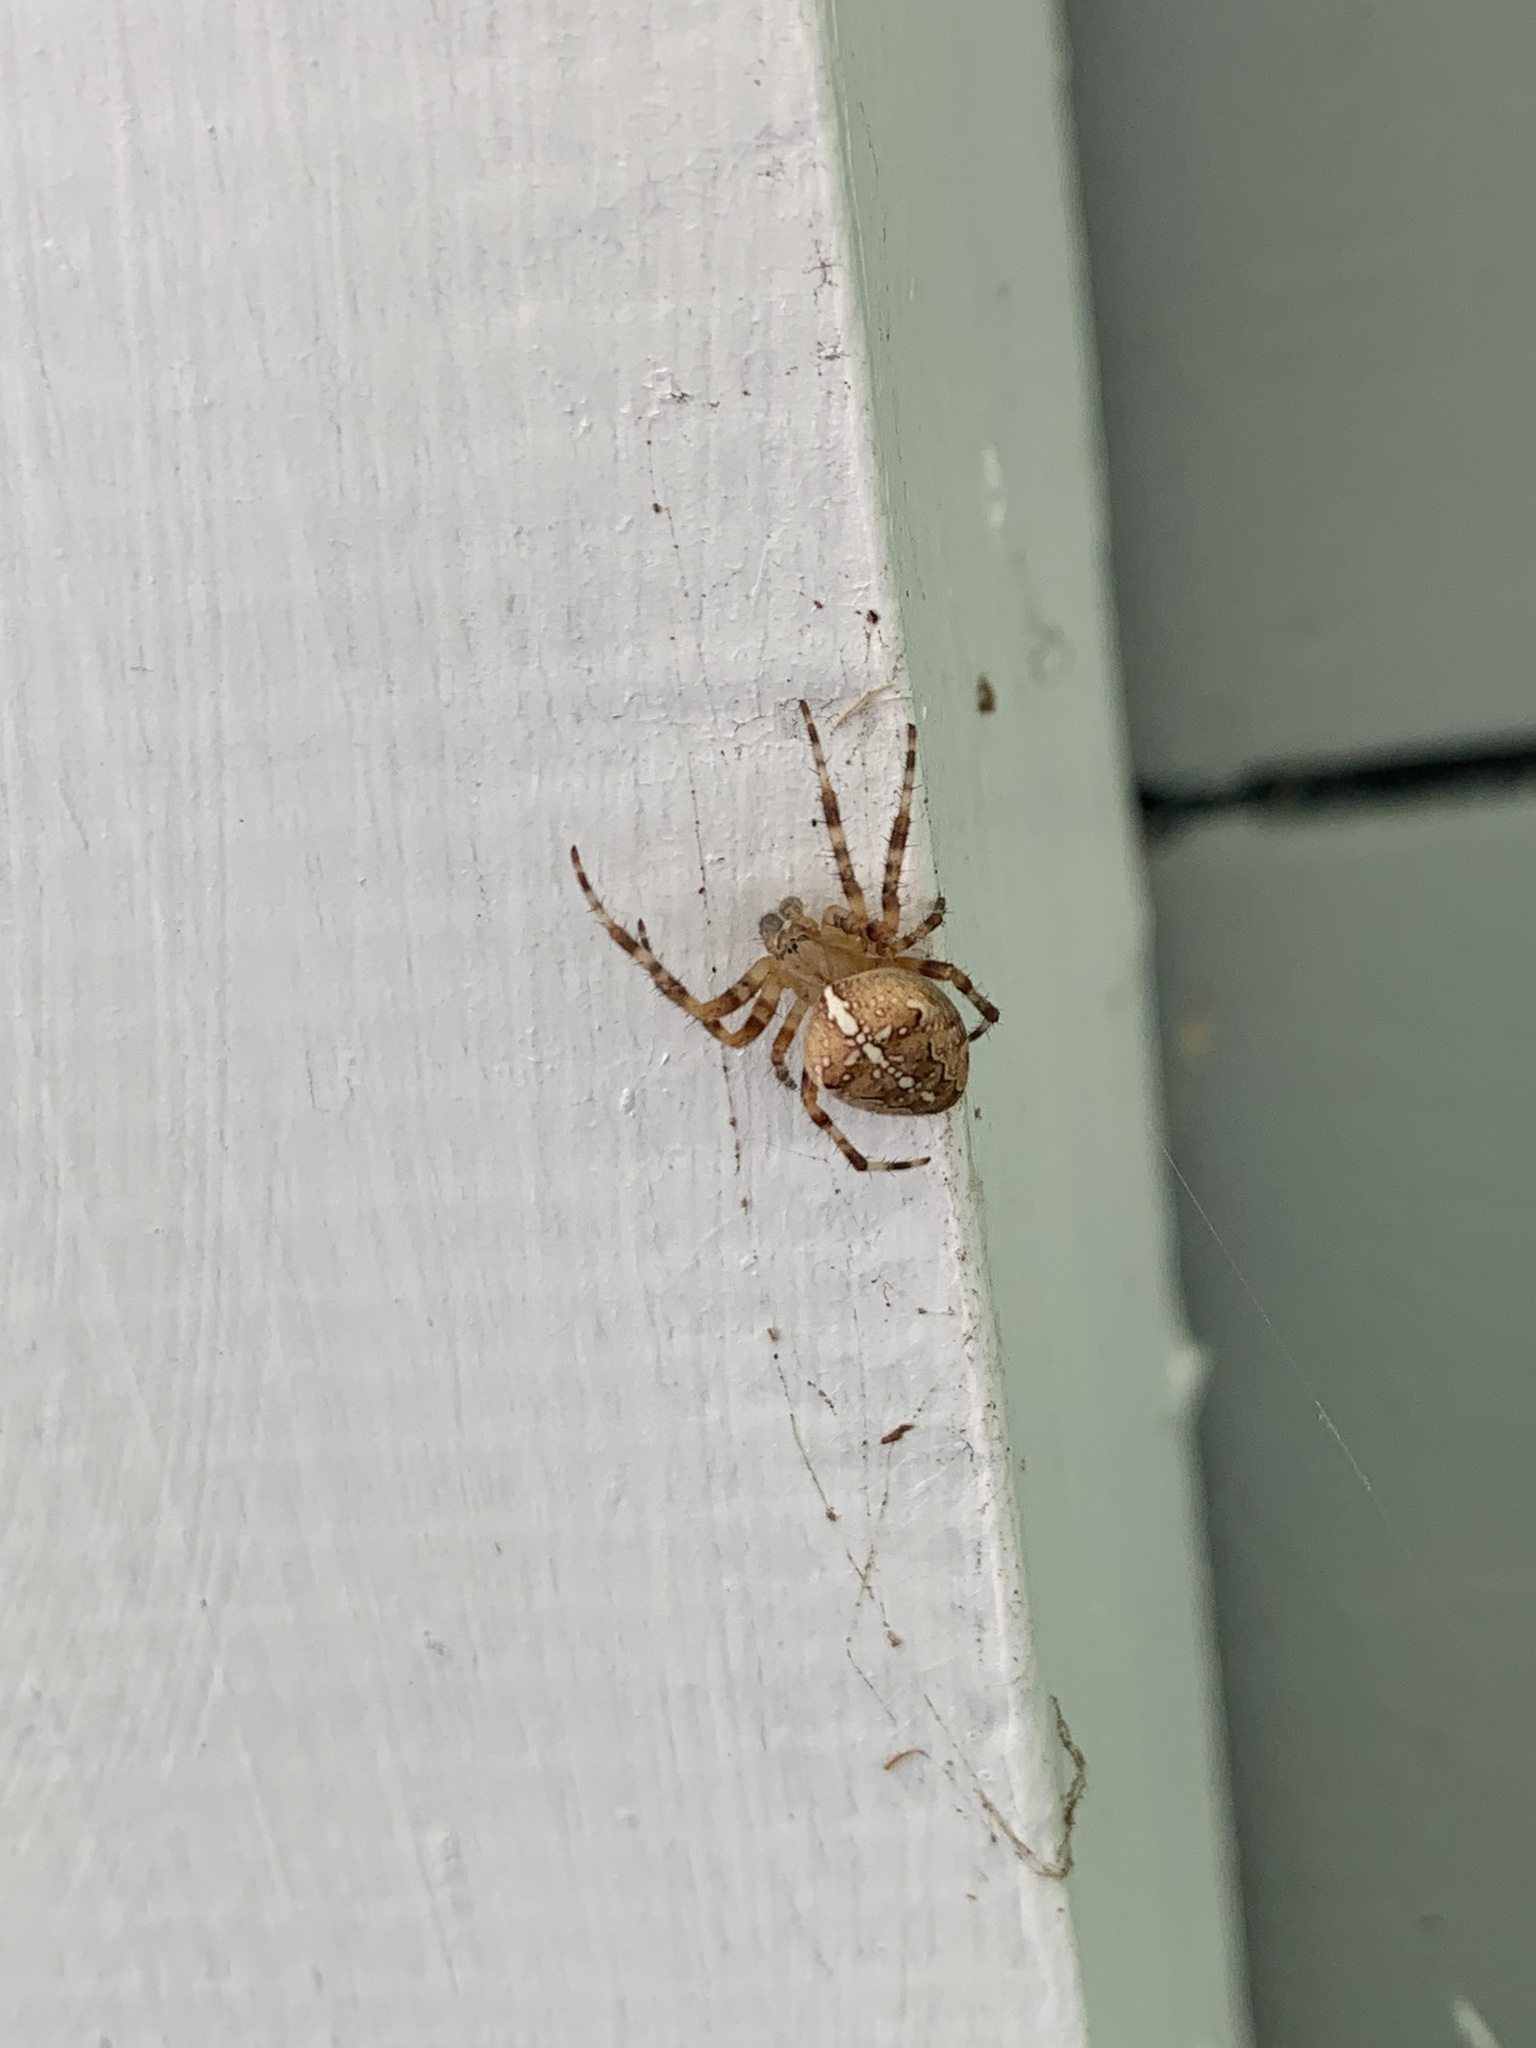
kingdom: Animalia
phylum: Arthropoda
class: Arachnida
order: Araneae
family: Araneidae
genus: Araneus
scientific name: Araneus diadematus
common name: Cross orbweaver
